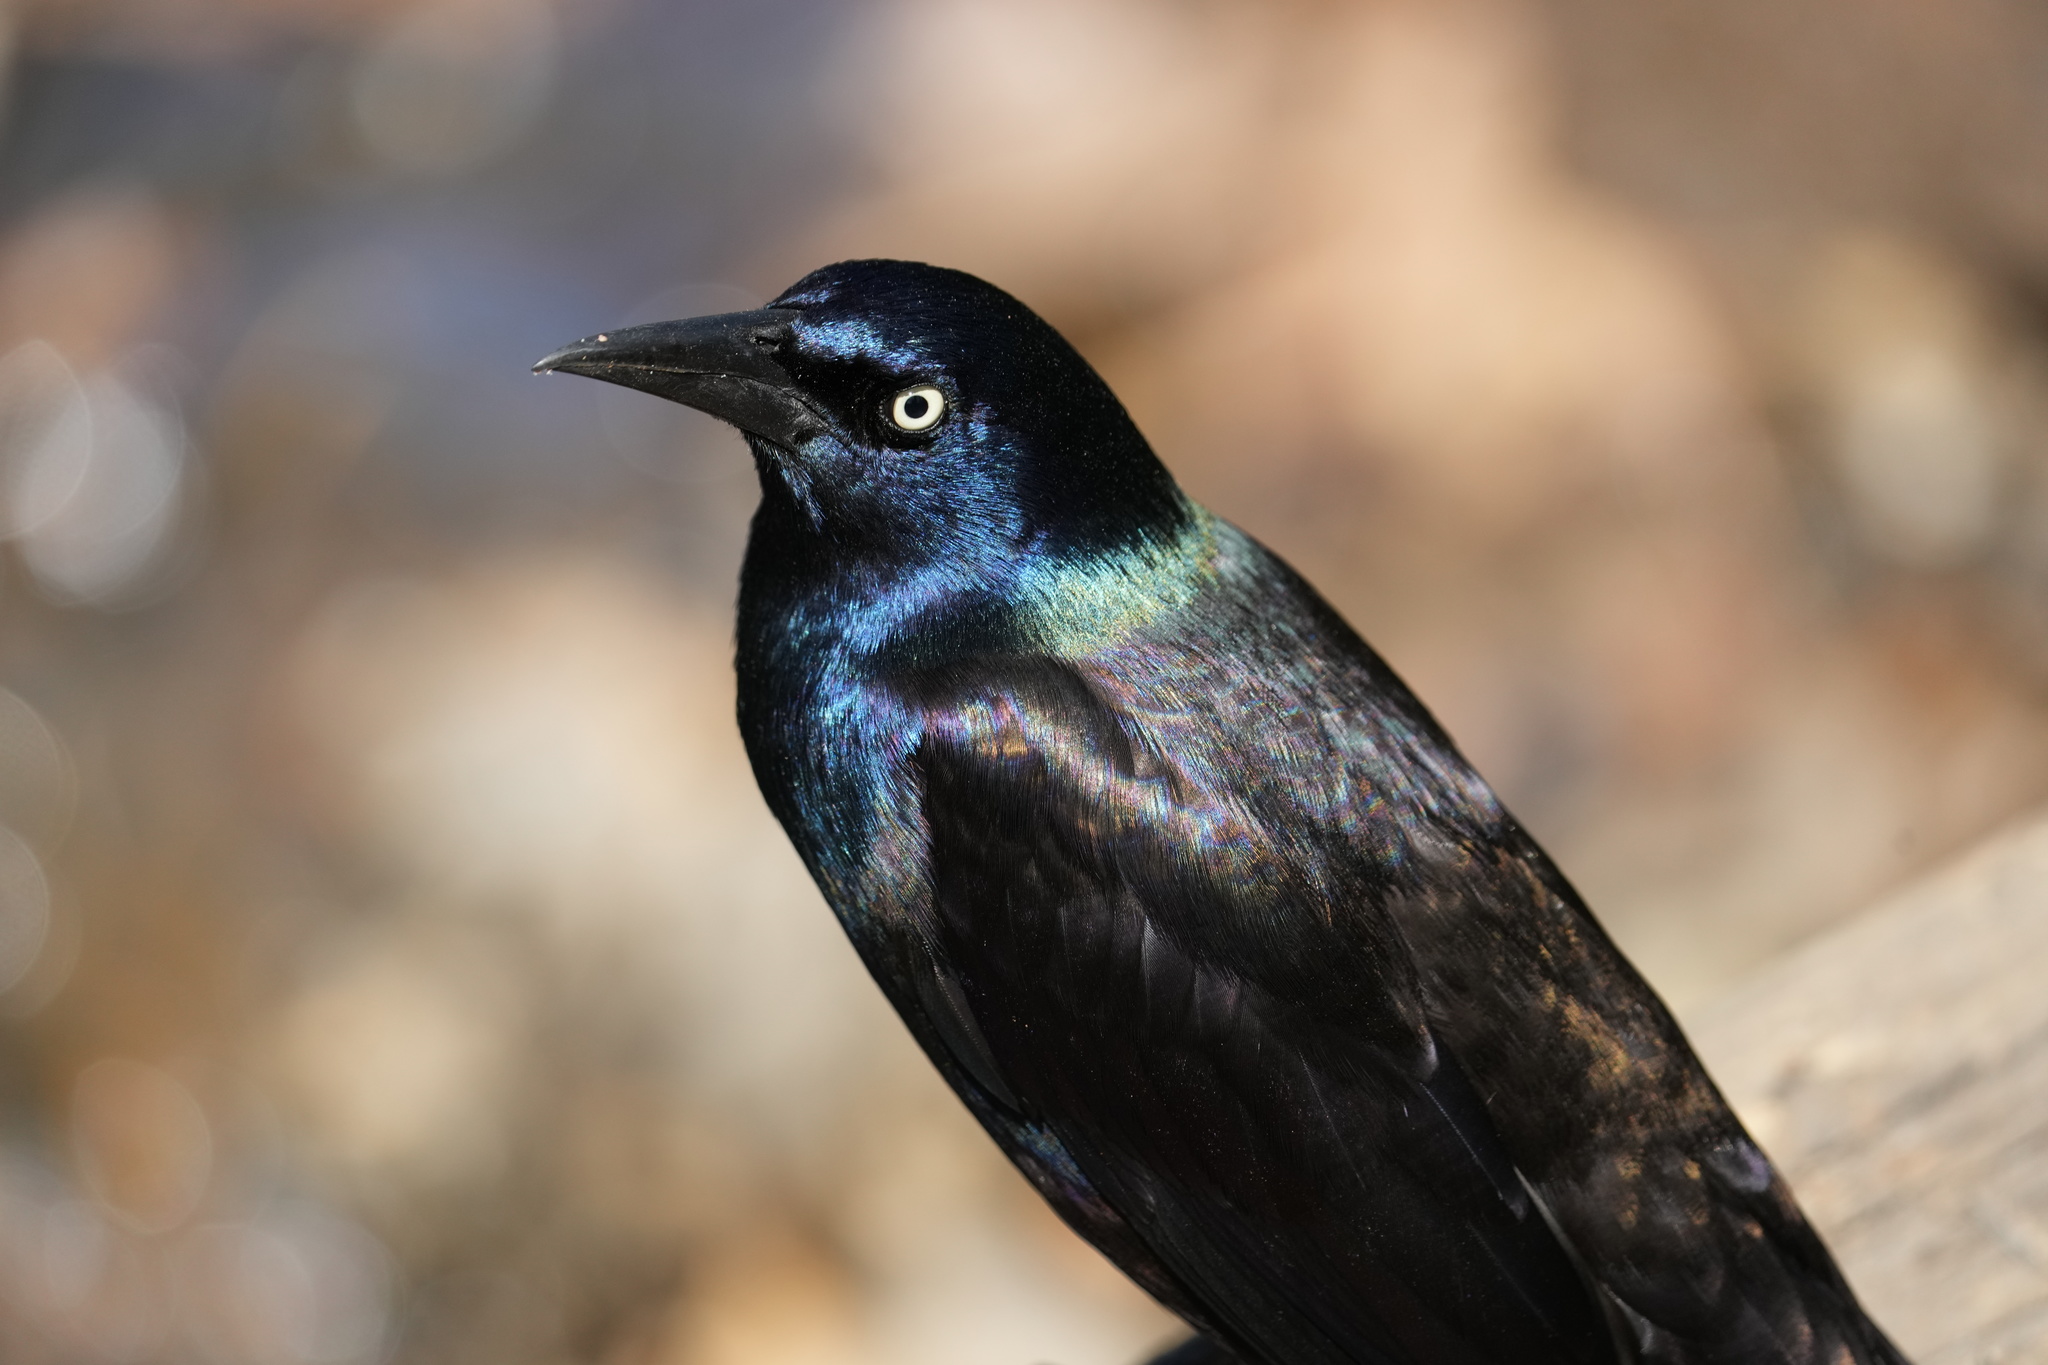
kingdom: Animalia
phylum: Chordata
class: Aves
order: Passeriformes
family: Icteridae
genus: Quiscalus
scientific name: Quiscalus quiscula
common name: Common grackle
